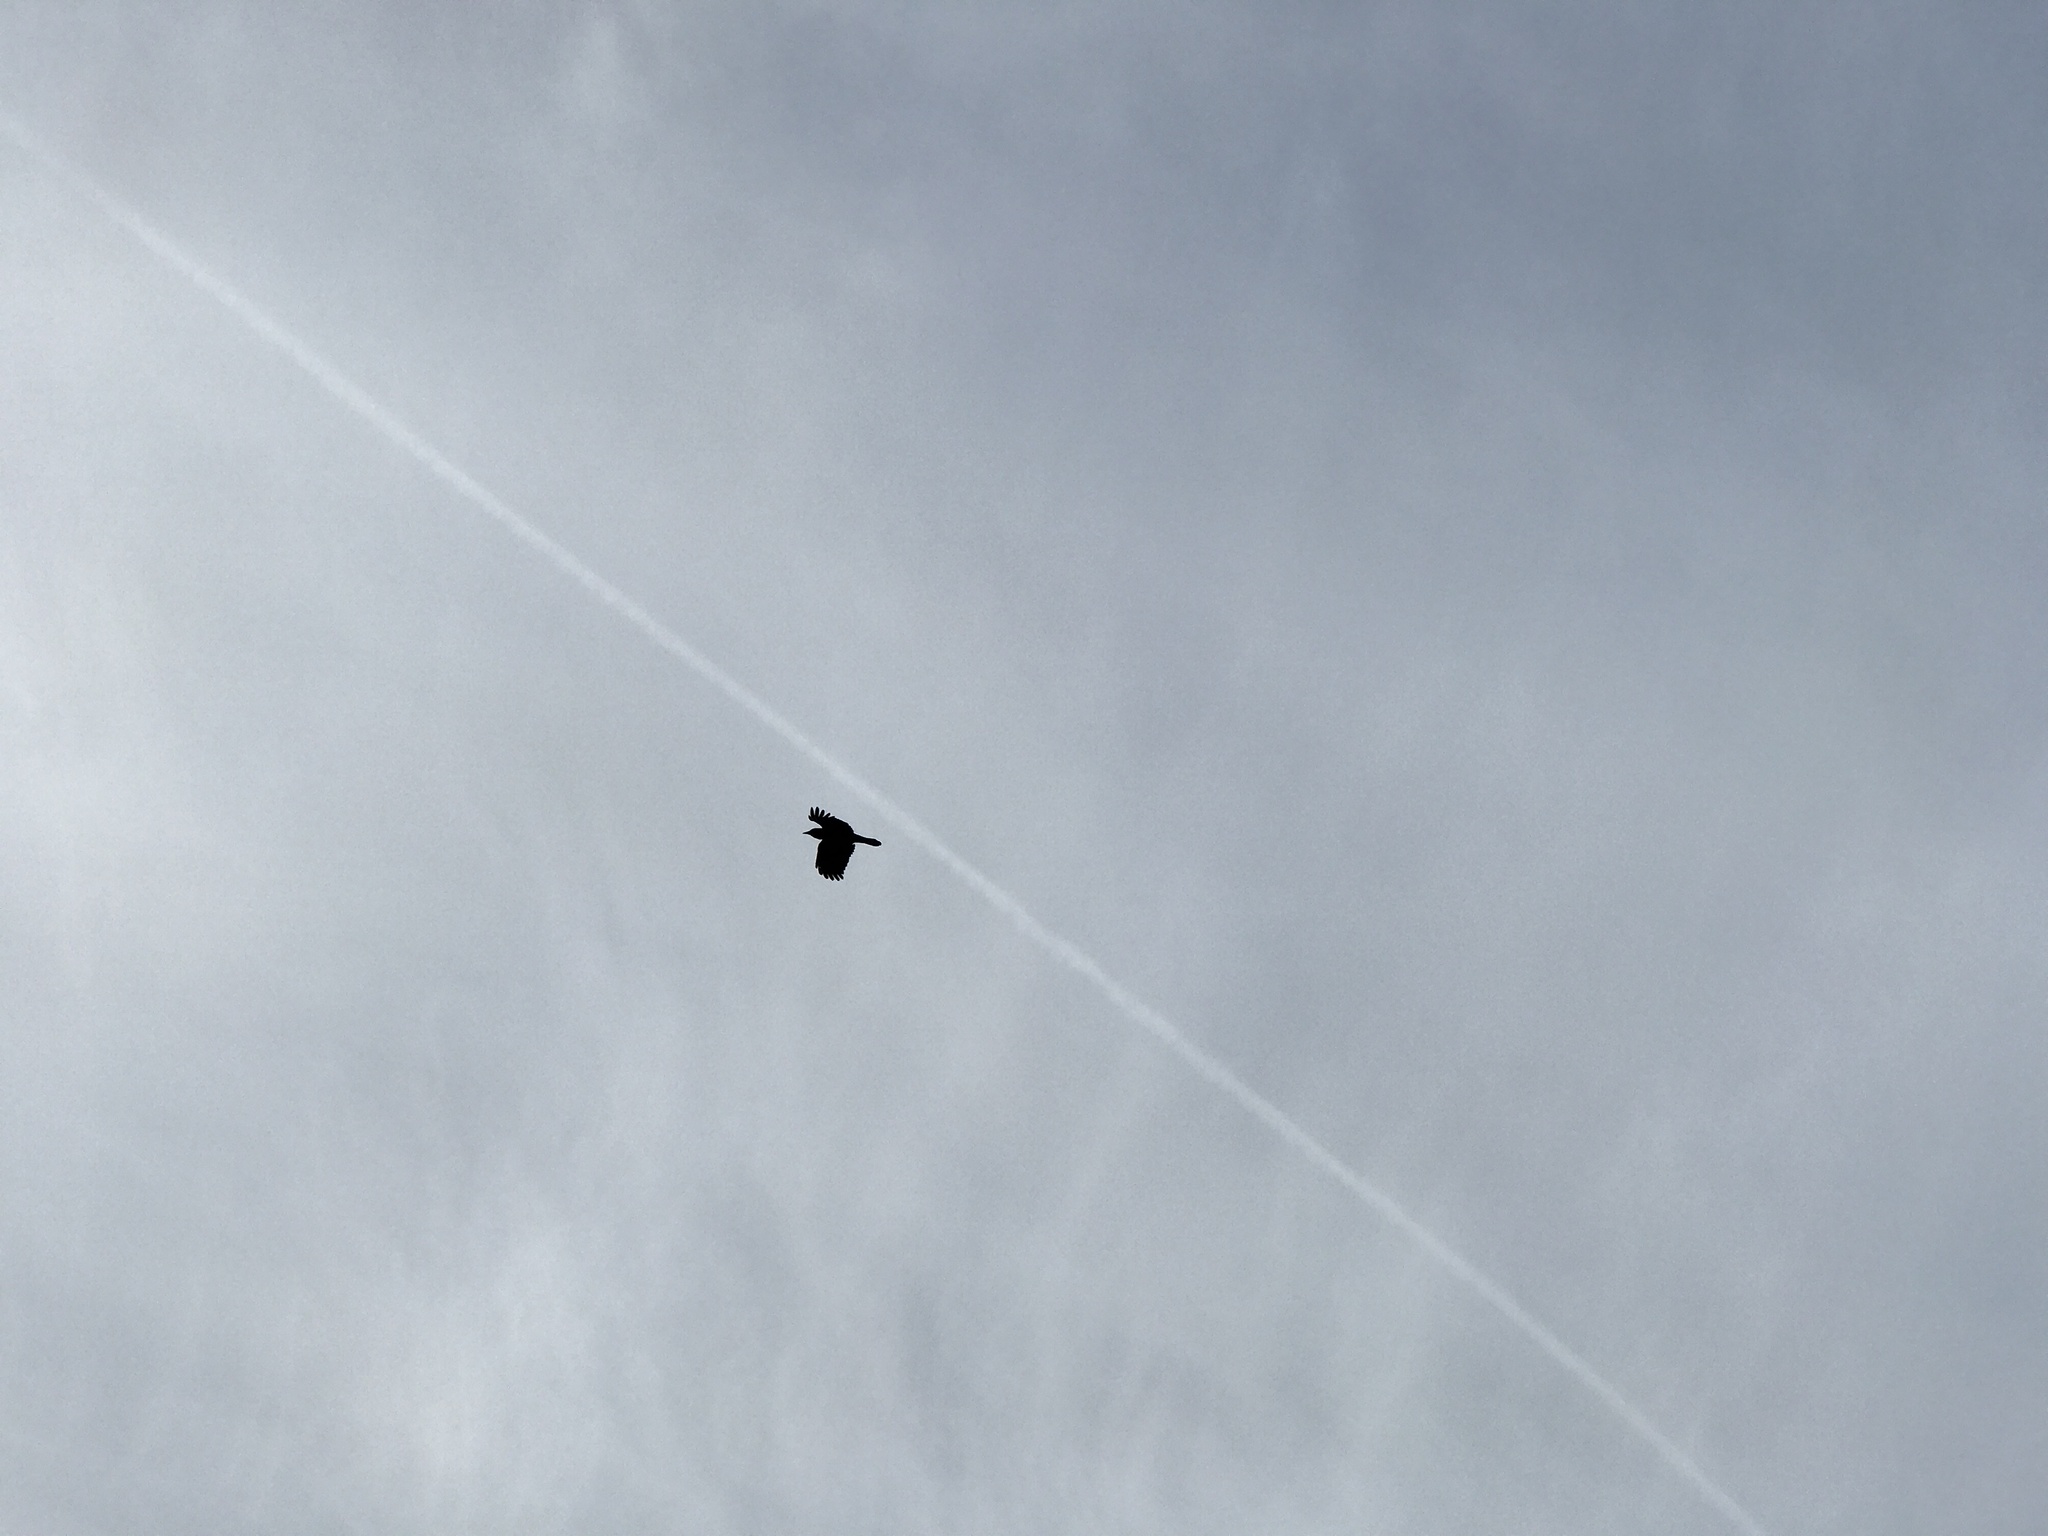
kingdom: Animalia
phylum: Chordata
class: Aves
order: Passeriformes
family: Corvidae
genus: Corvus
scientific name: Corvus brachyrhynchos
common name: American crow
